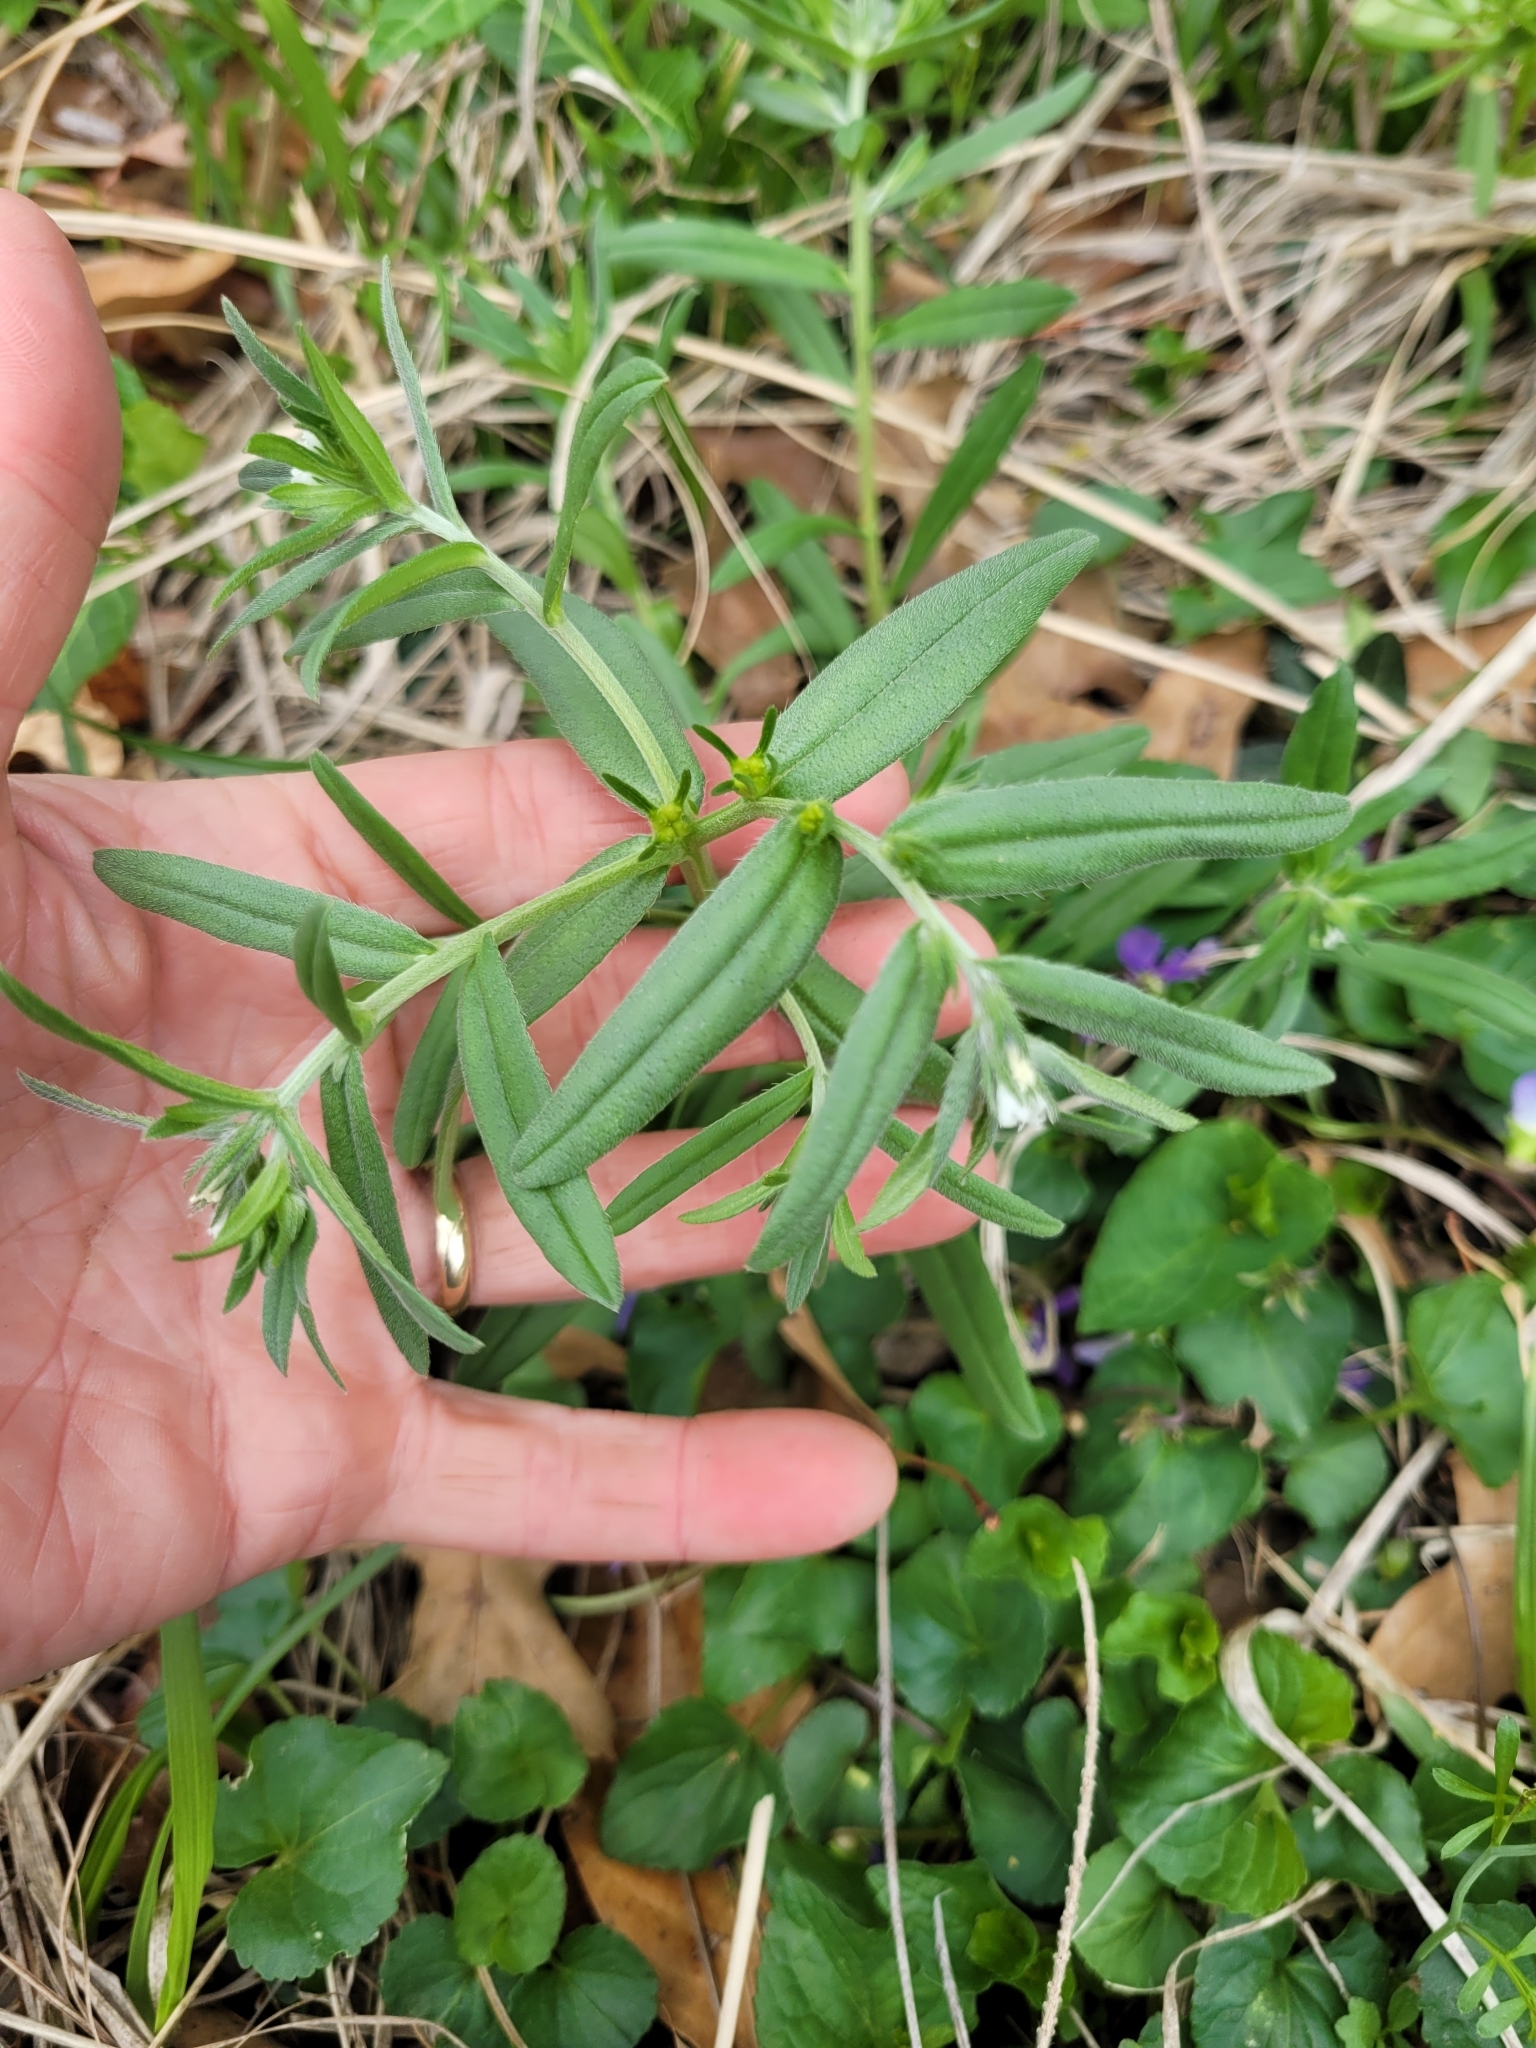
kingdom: Plantae
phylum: Tracheophyta
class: Magnoliopsida
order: Boraginales
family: Boraginaceae
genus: Buglossoides
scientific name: Buglossoides arvensis
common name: Corn gromwell
